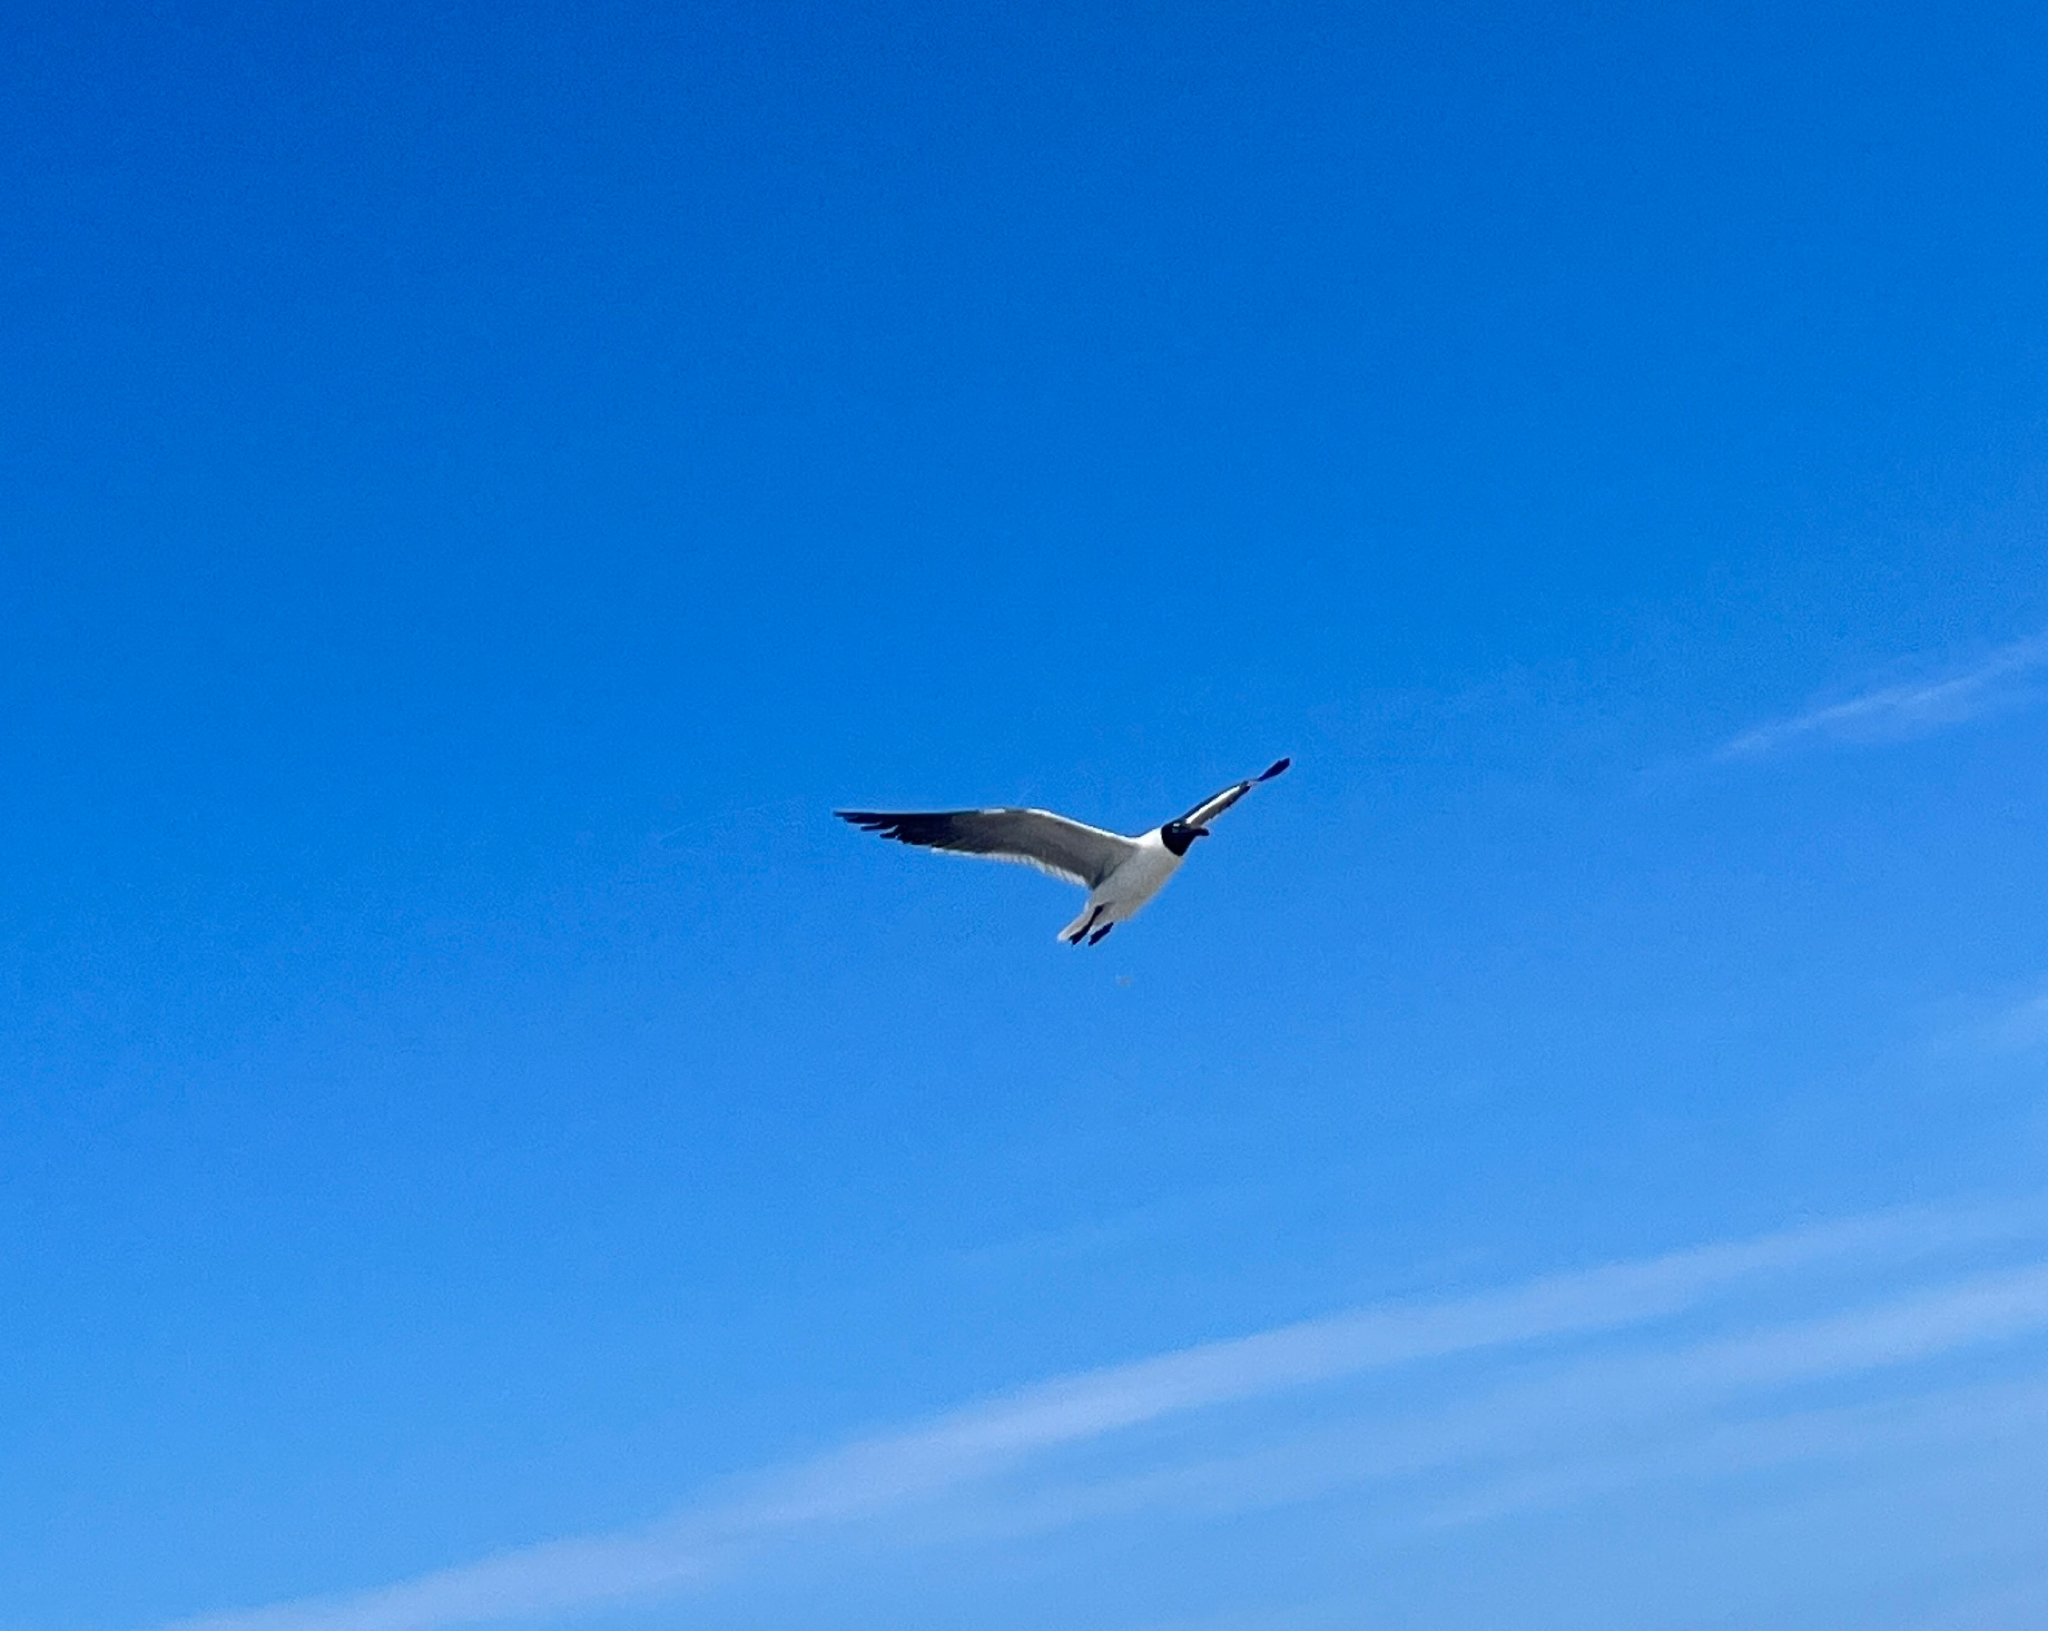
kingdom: Animalia
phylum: Chordata
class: Aves
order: Charadriiformes
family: Laridae
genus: Leucophaeus
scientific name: Leucophaeus atricilla
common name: Laughing gull
